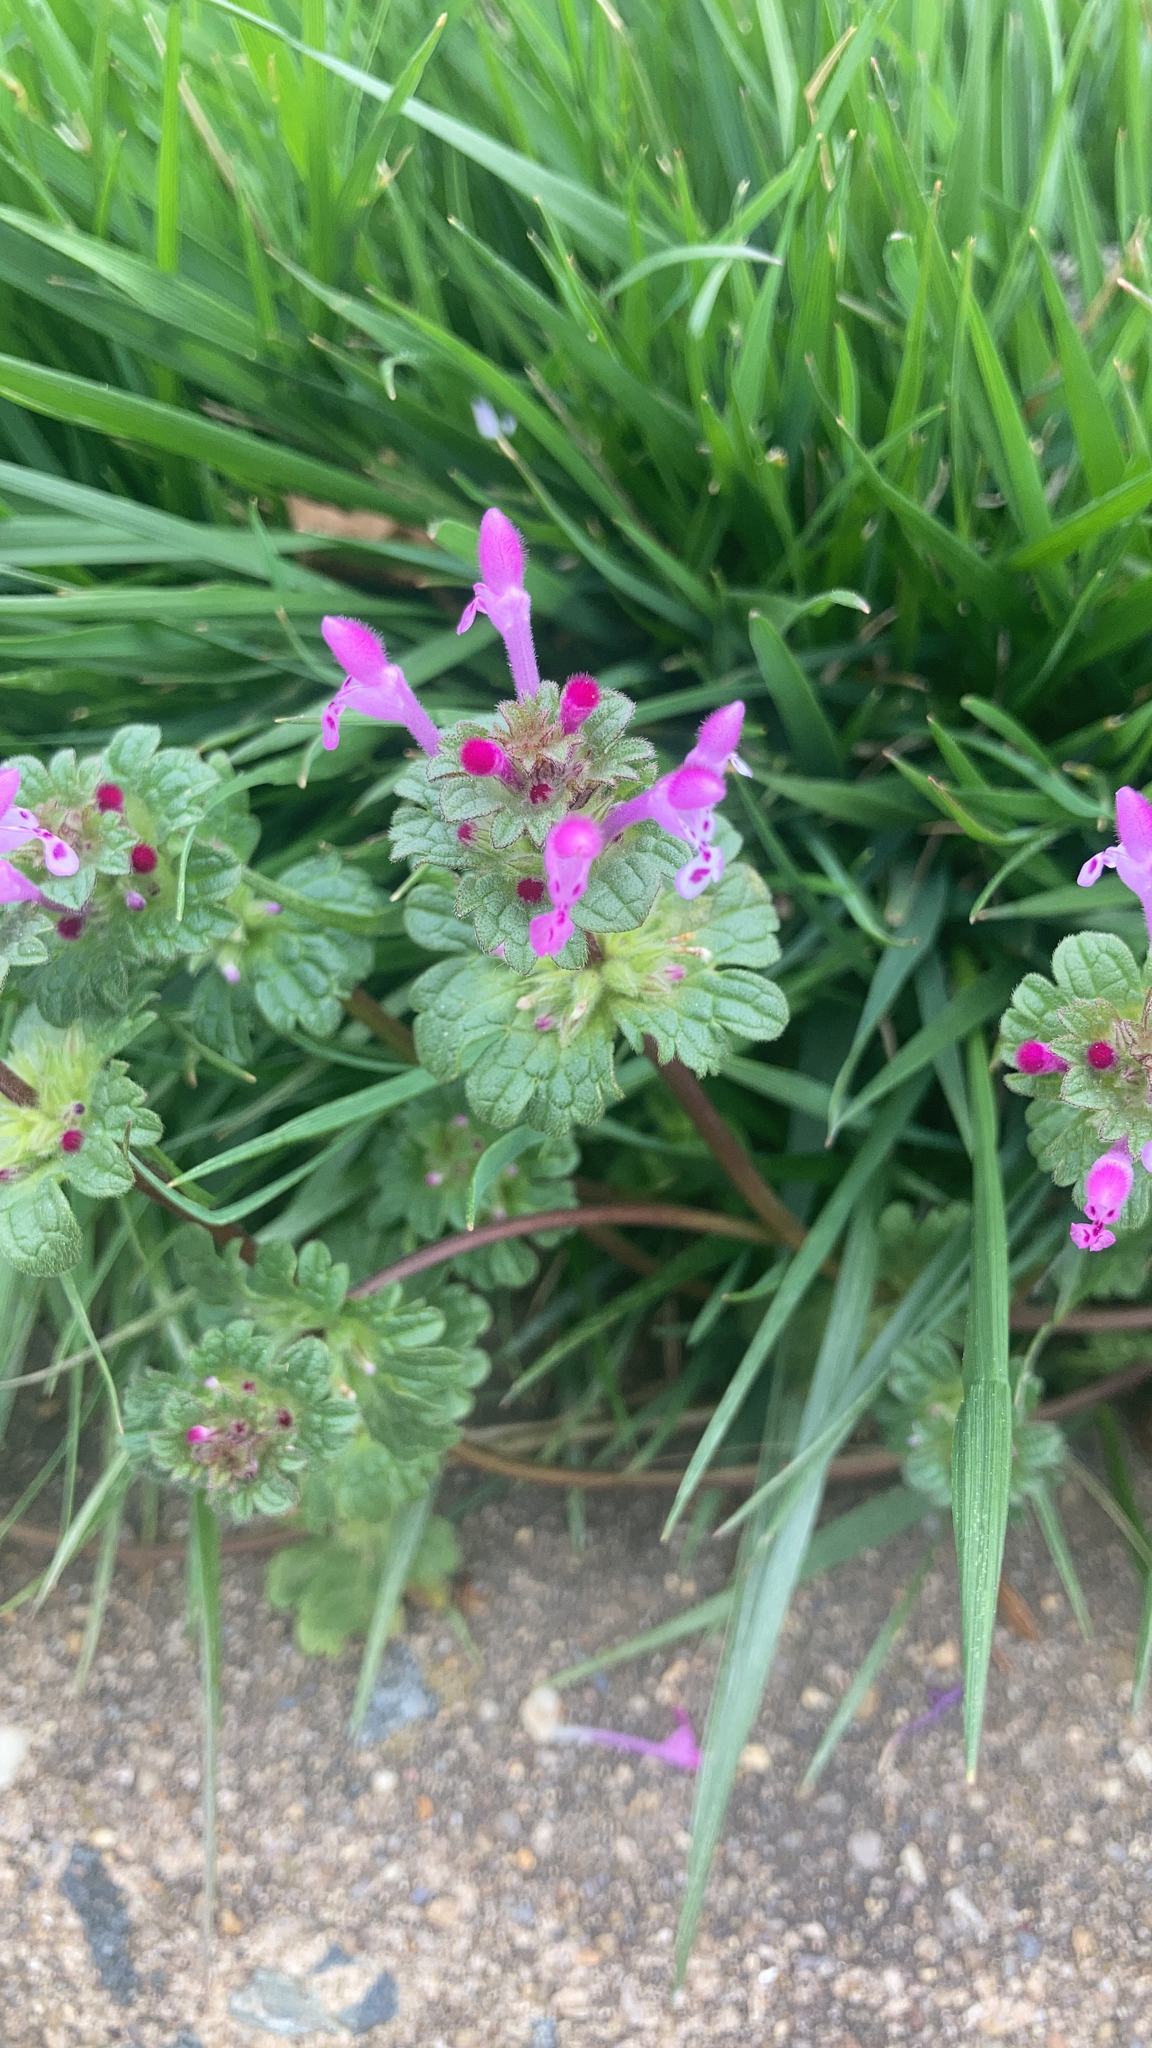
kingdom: Plantae
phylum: Tracheophyta
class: Magnoliopsida
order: Lamiales
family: Lamiaceae
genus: Lamium
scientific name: Lamium amplexicaule
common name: Henbit dead-nettle
